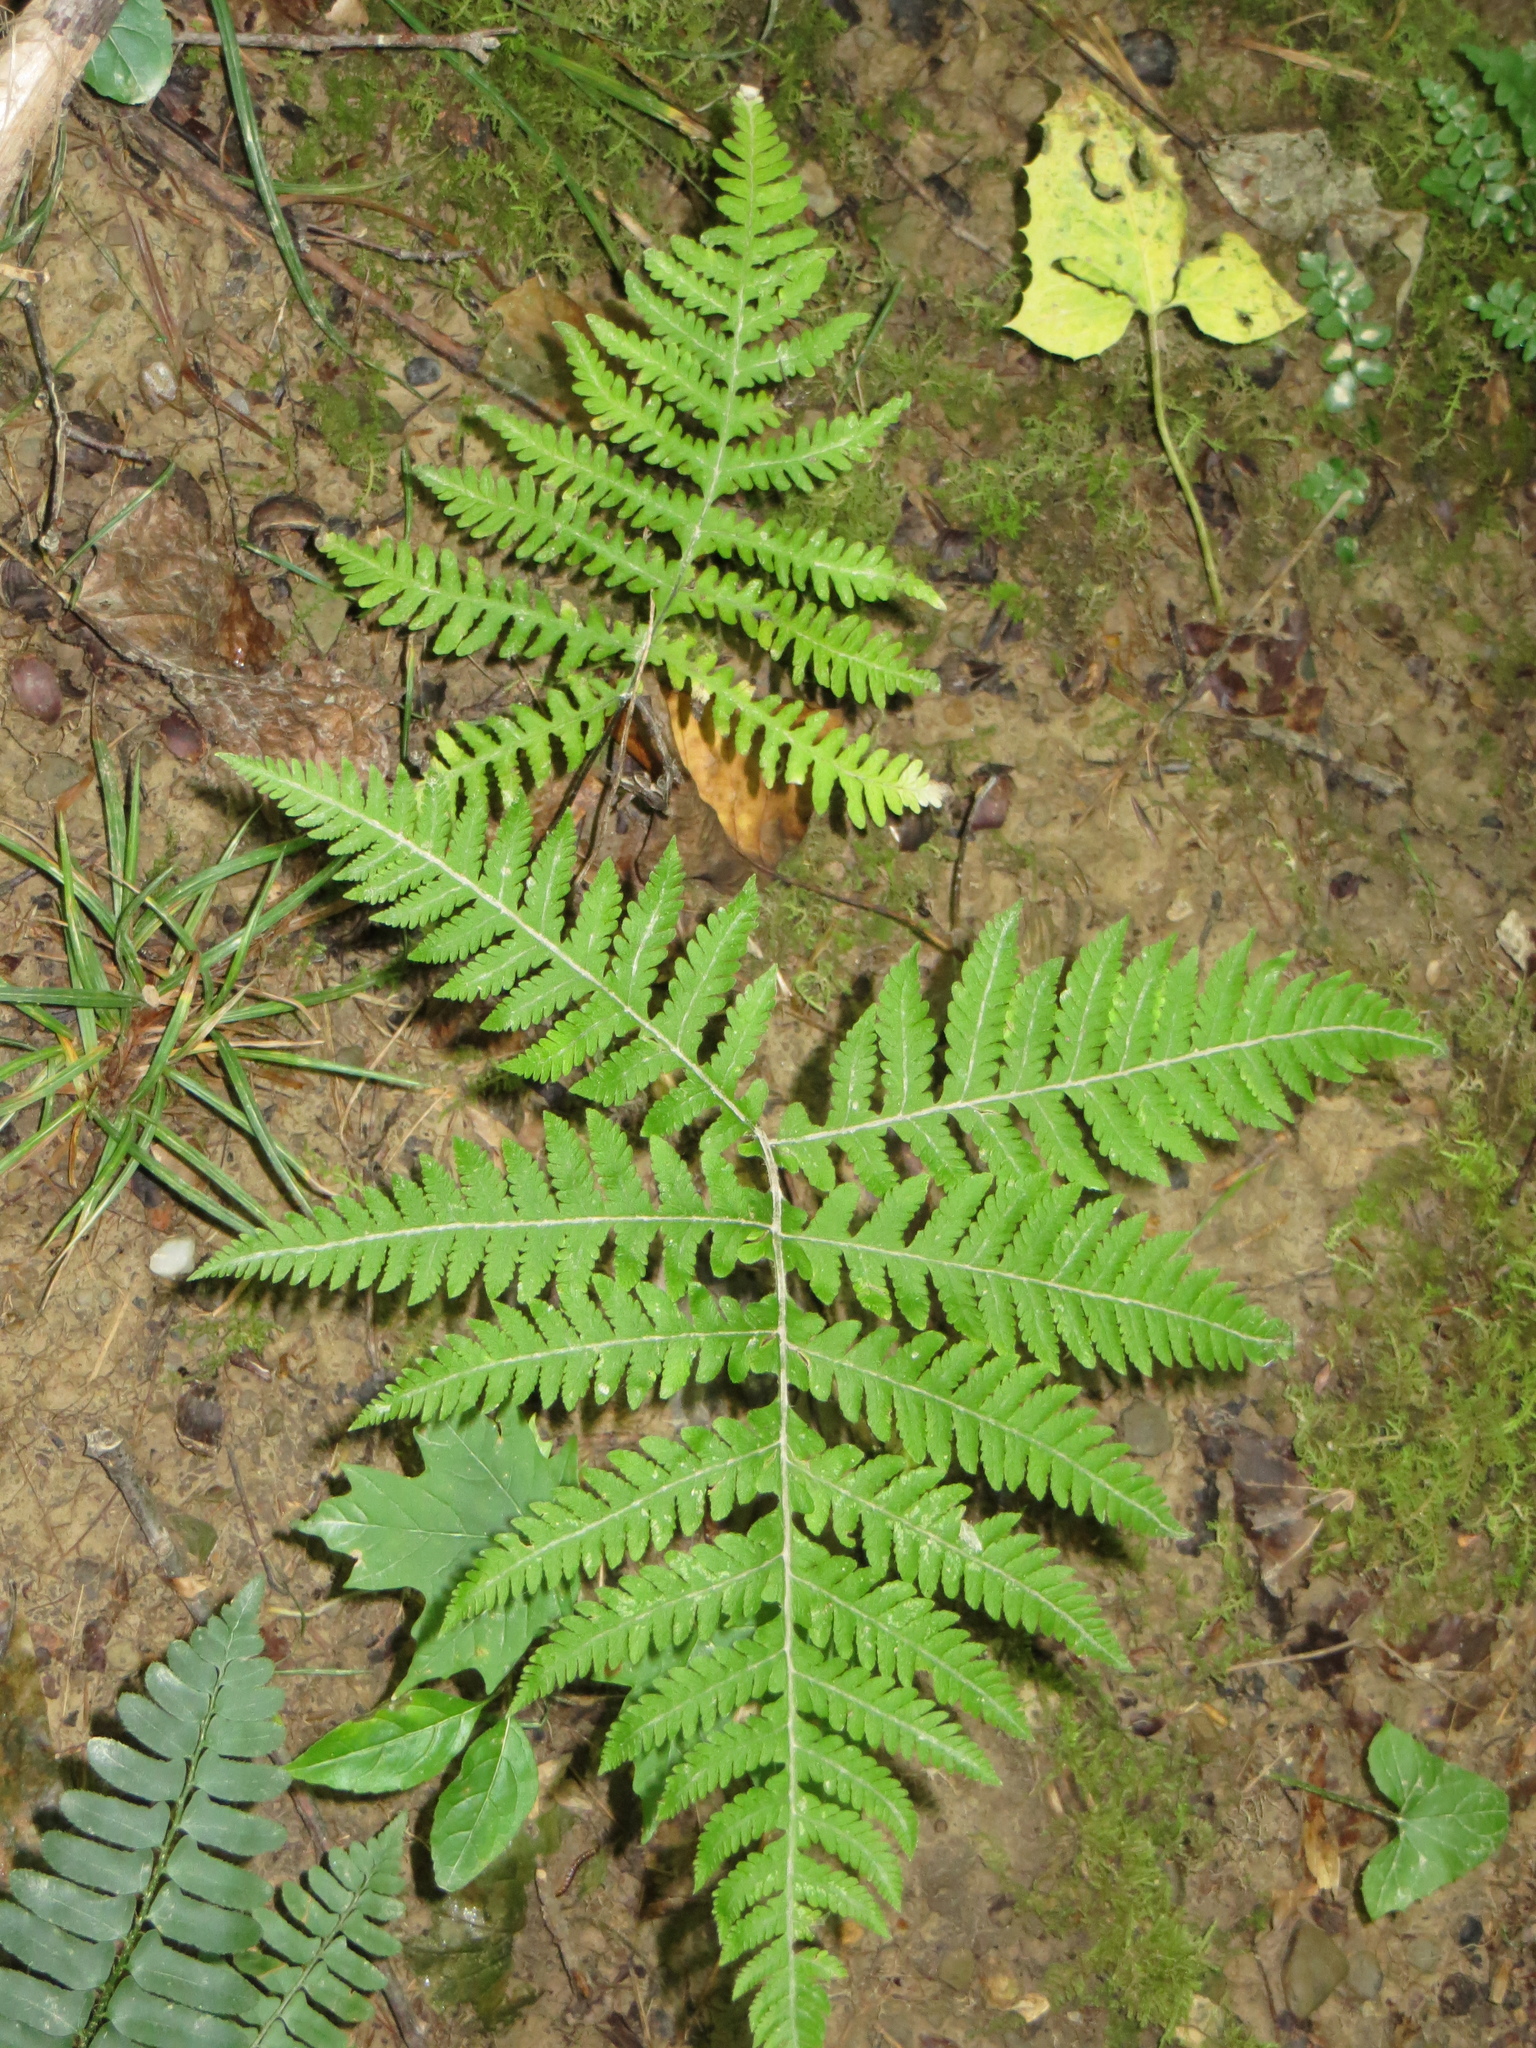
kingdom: Plantae
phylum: Tracheophyta
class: Polypodiopsida
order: Polypodiales
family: Thelypteridaceae
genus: Phegopteris
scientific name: Phegopteris hexagonoptera
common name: Broad beech fern
